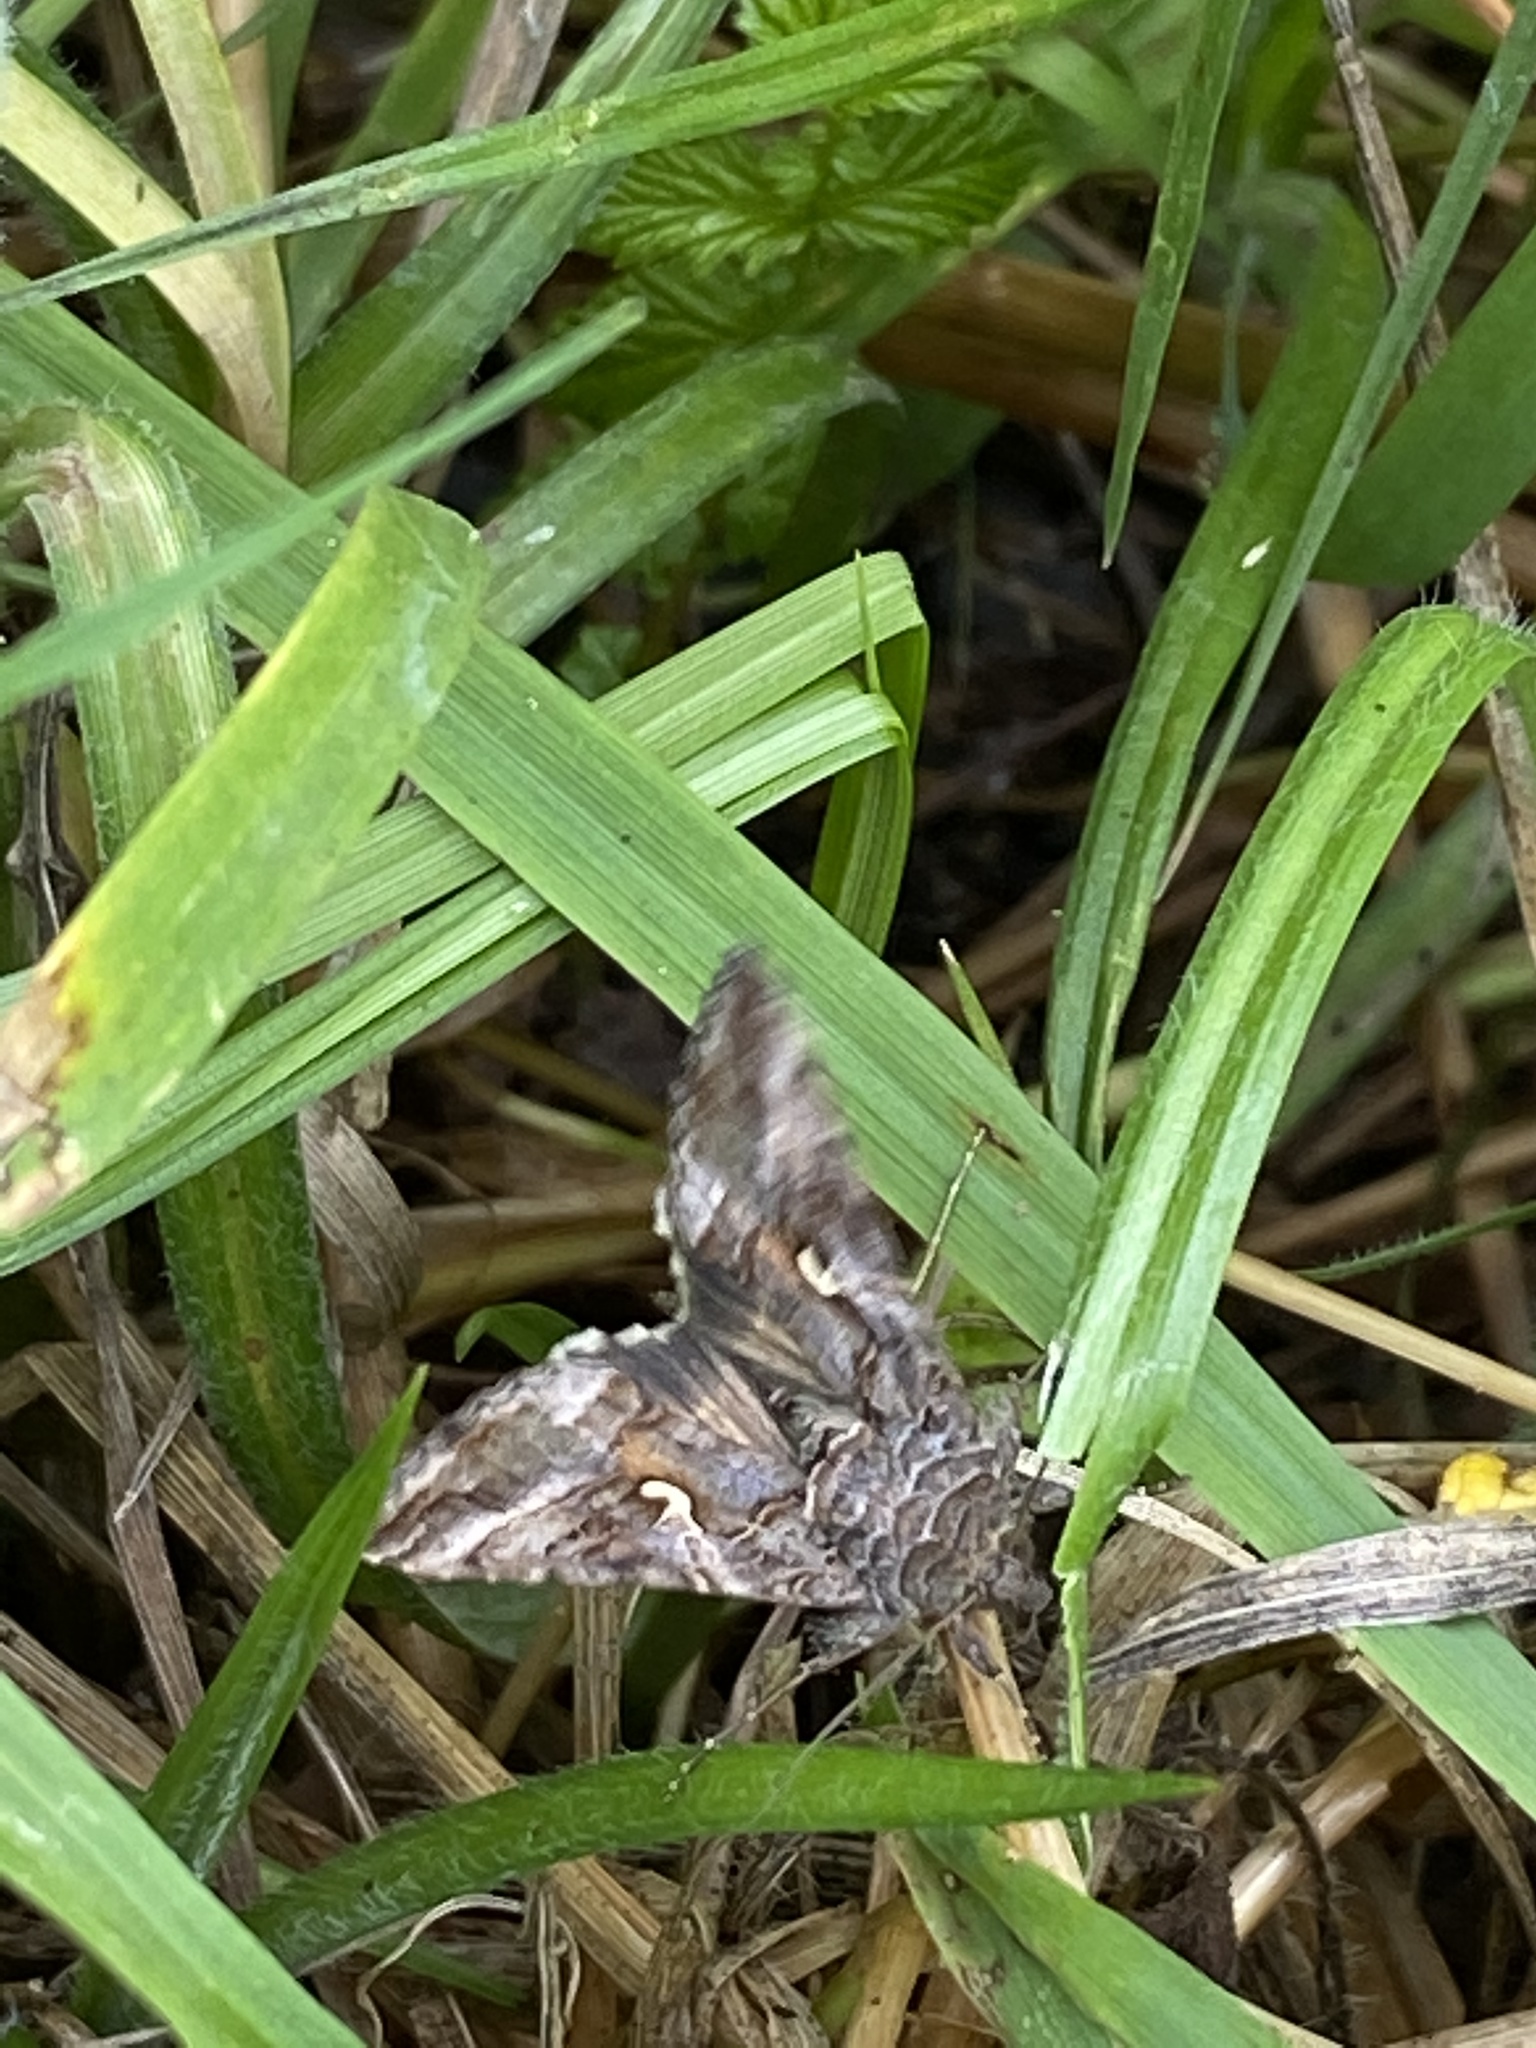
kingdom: Animalia
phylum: Arthropoda
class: Insecta
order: Lepidoptera
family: Noctuidae
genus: Autographa
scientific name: Autographa gamma
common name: Silver y
